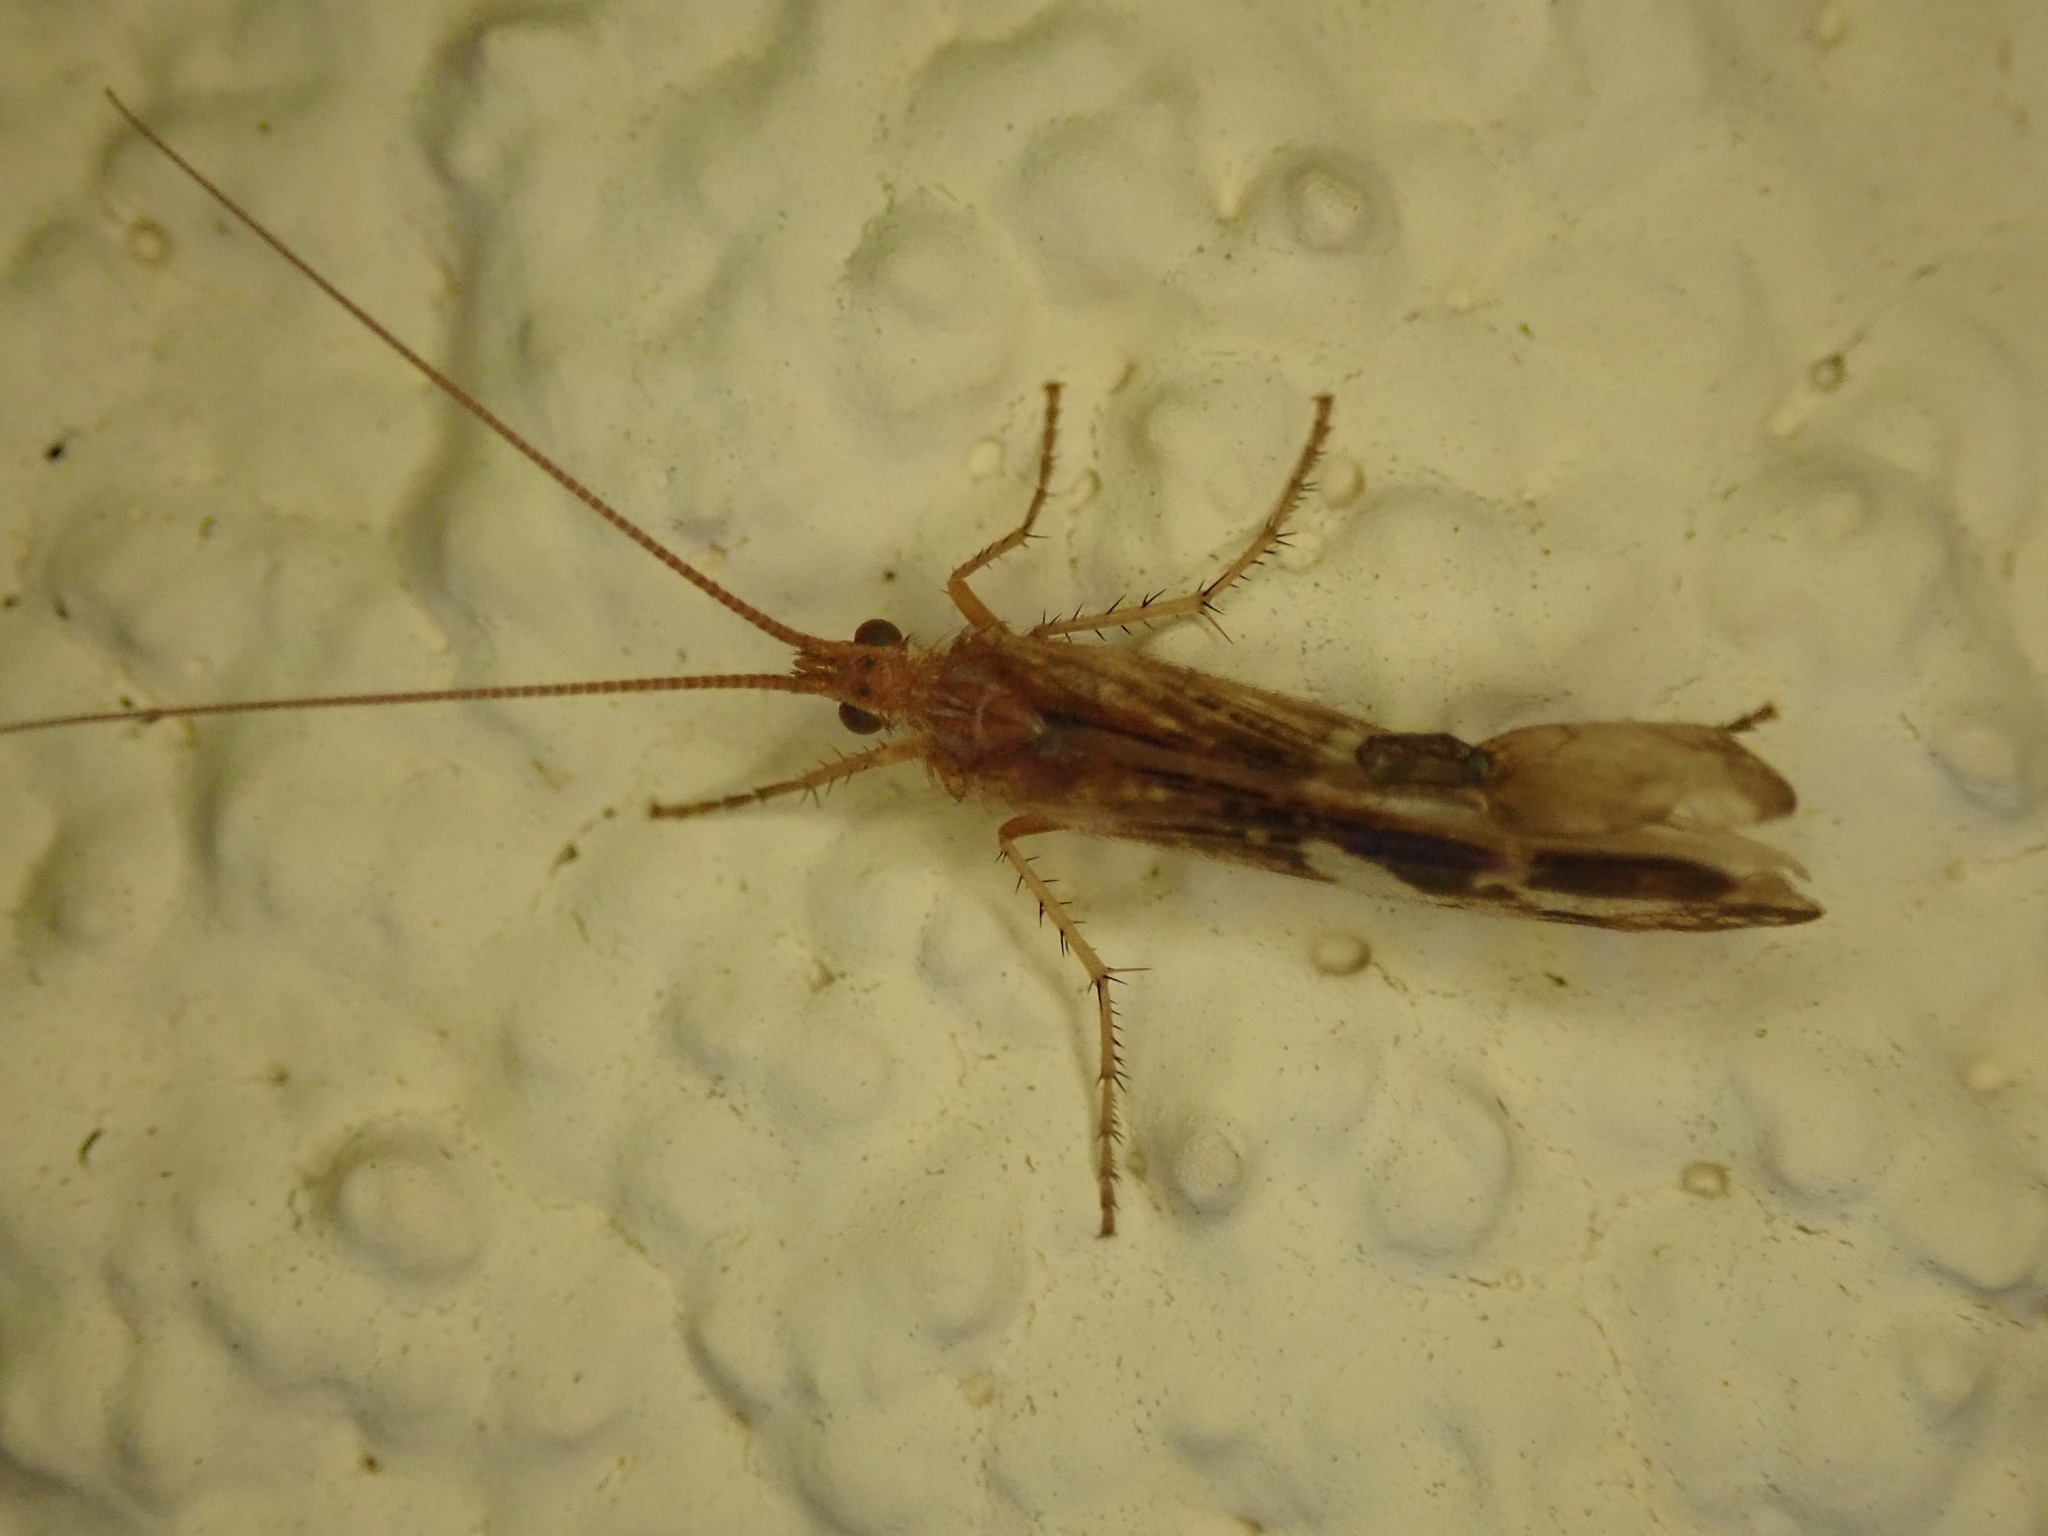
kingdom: Animalia
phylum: Arthropoda
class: Insecta
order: Trichoptera
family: Limnephilidae
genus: Limnephilus
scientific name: Limnephilus lunatus
